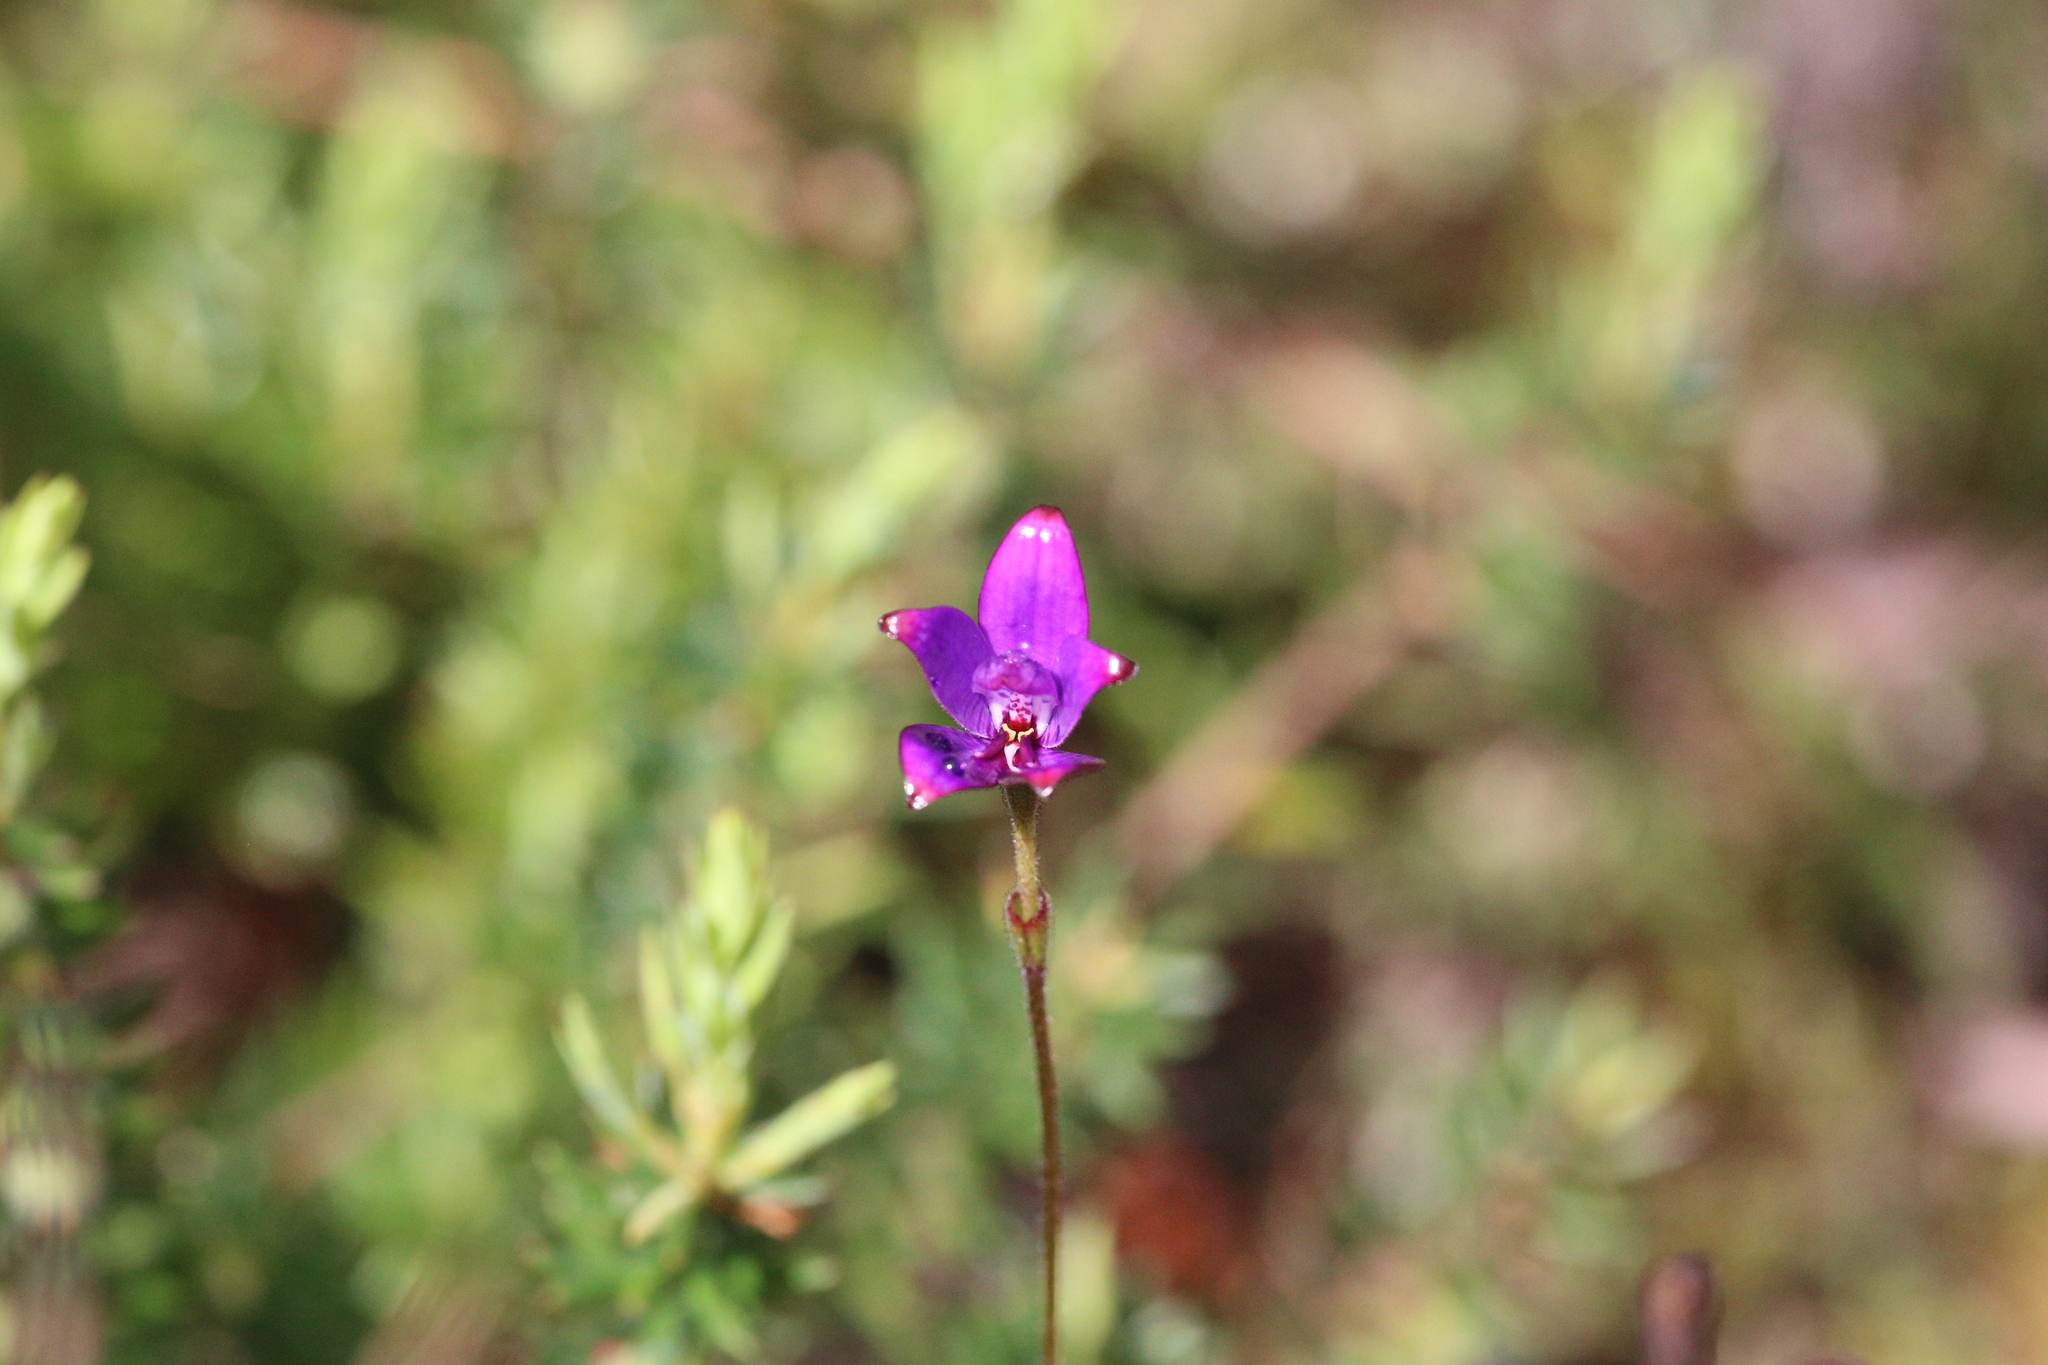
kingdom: Plantae
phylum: Tracheophyta
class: Liliopsida
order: Asparagales
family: Orchidaceae
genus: Caladenia
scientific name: Caladenia brunonis
